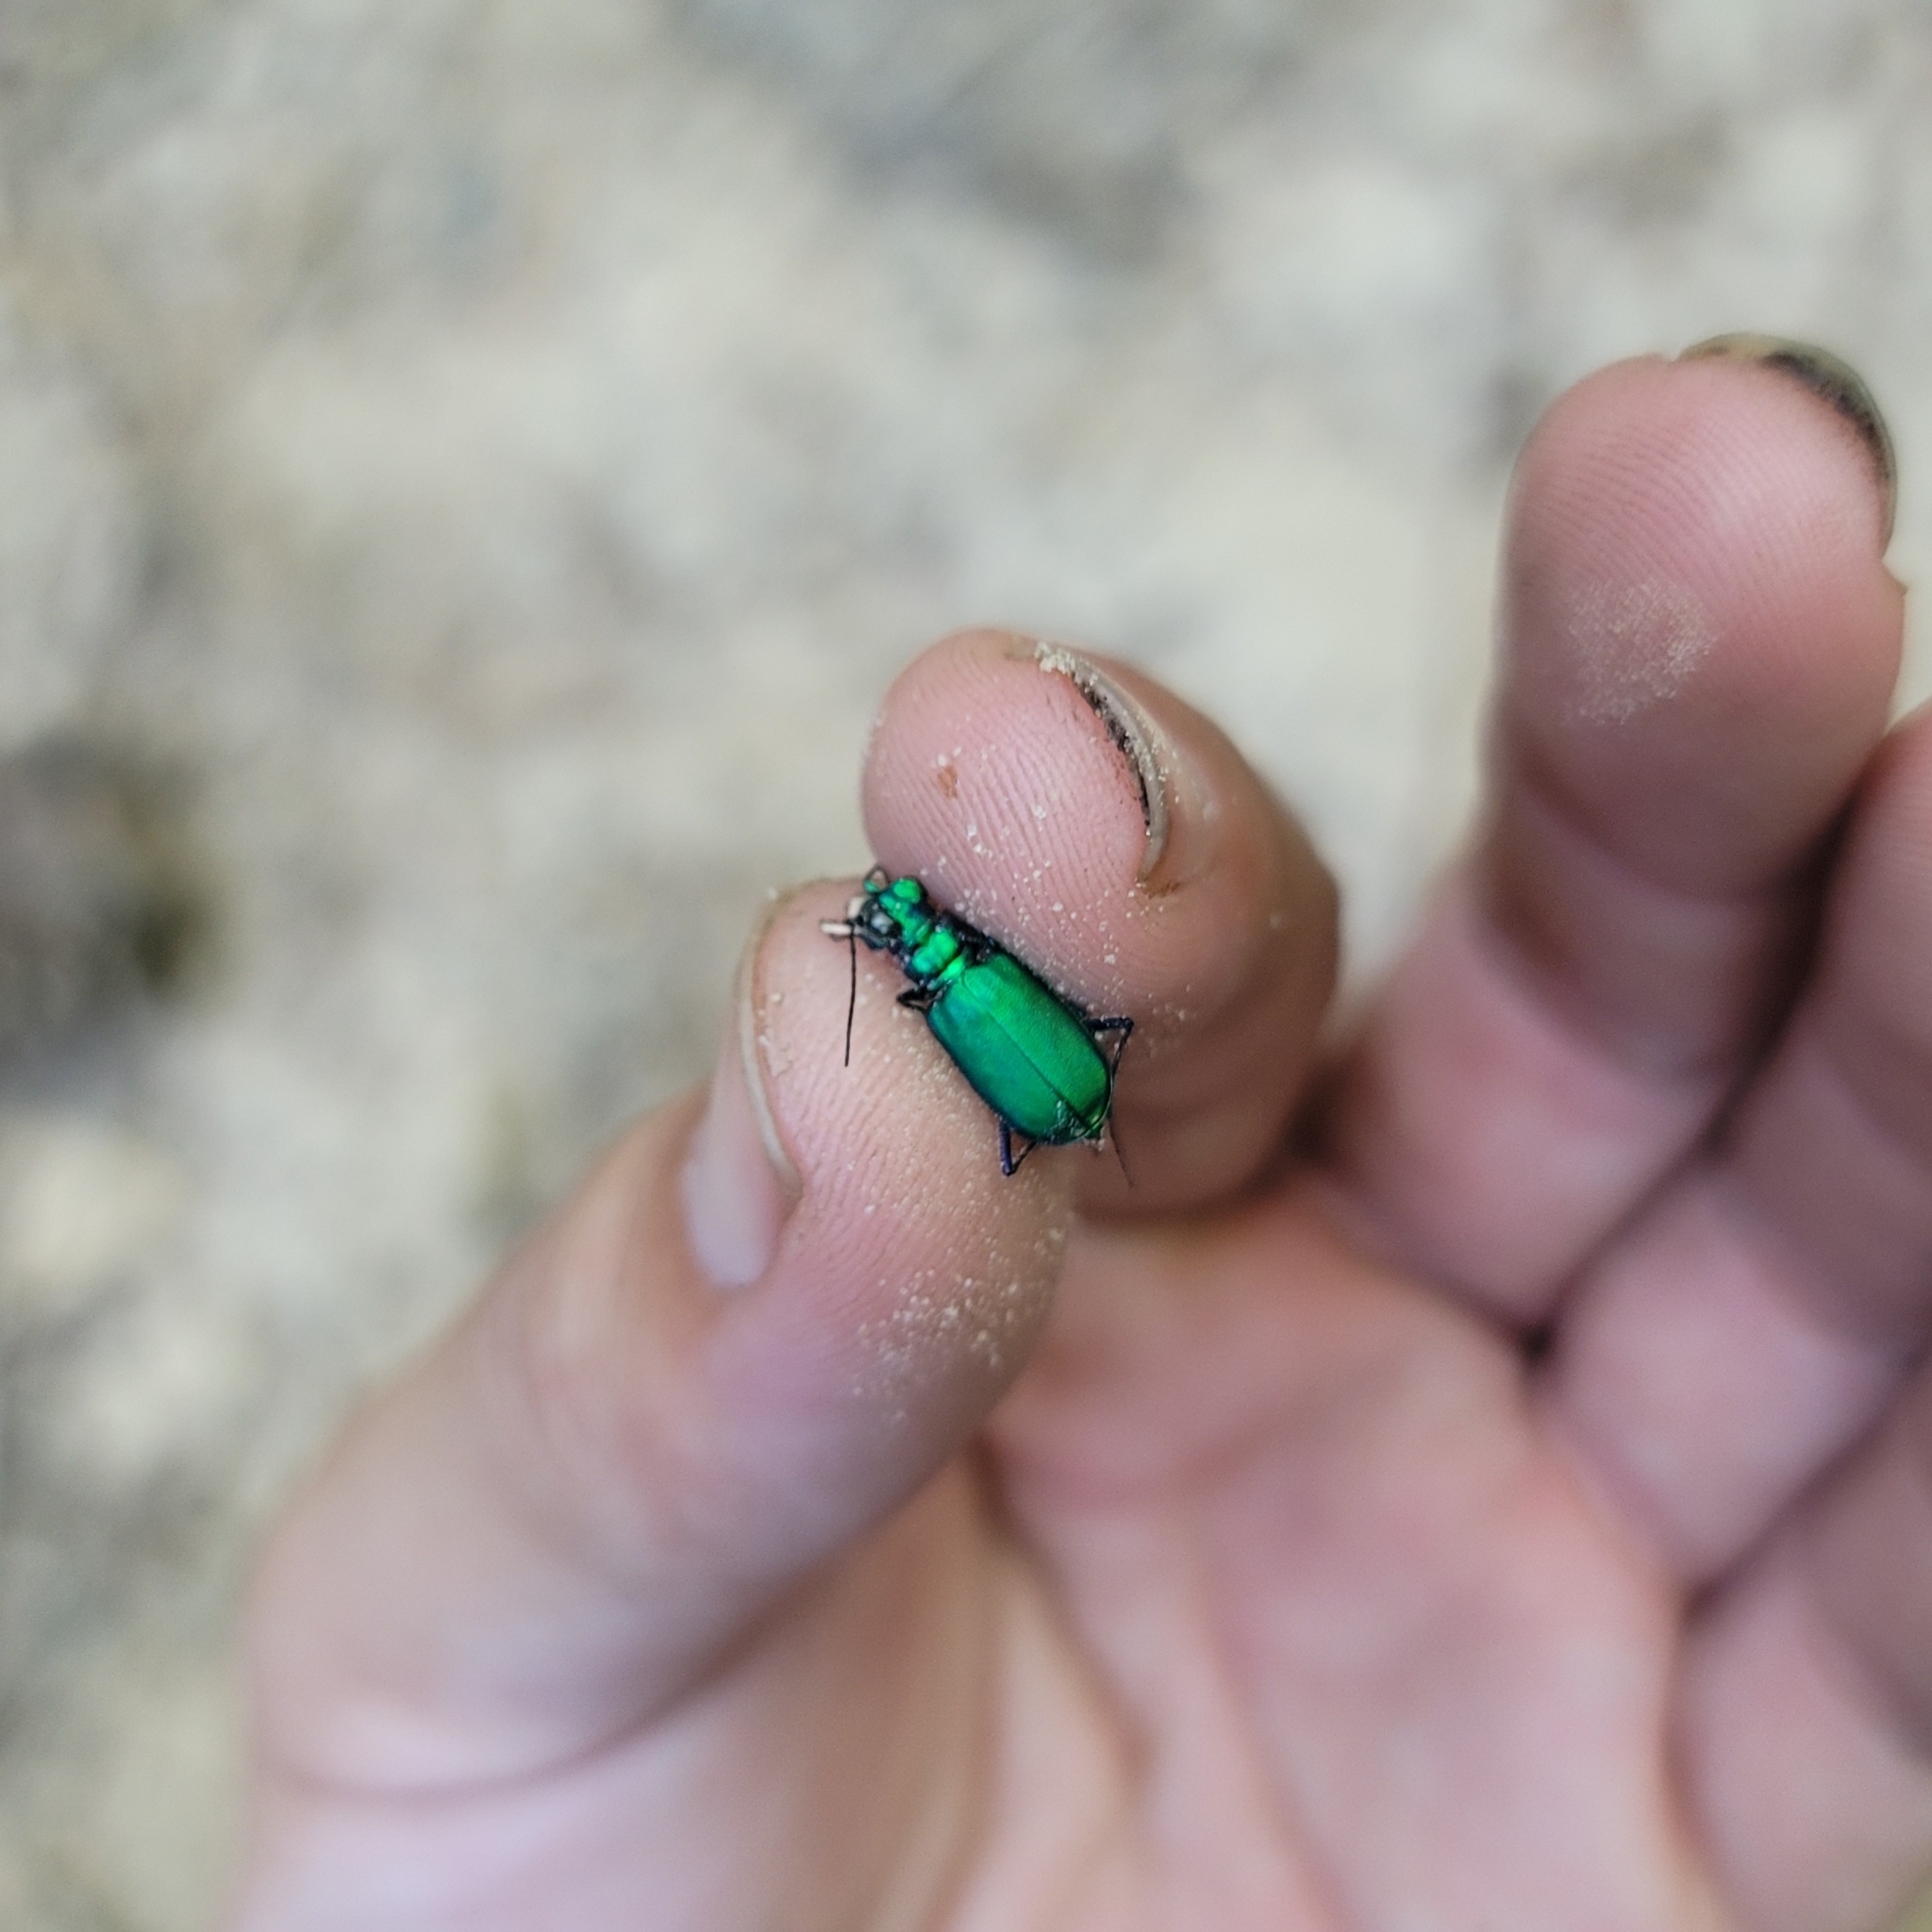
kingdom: Animalia
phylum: Arthropoda
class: Insecta
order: Coleoptera
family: Carabidae
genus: Cicindela
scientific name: Cicindela sexguttata
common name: Six-spotted tiger beetle
